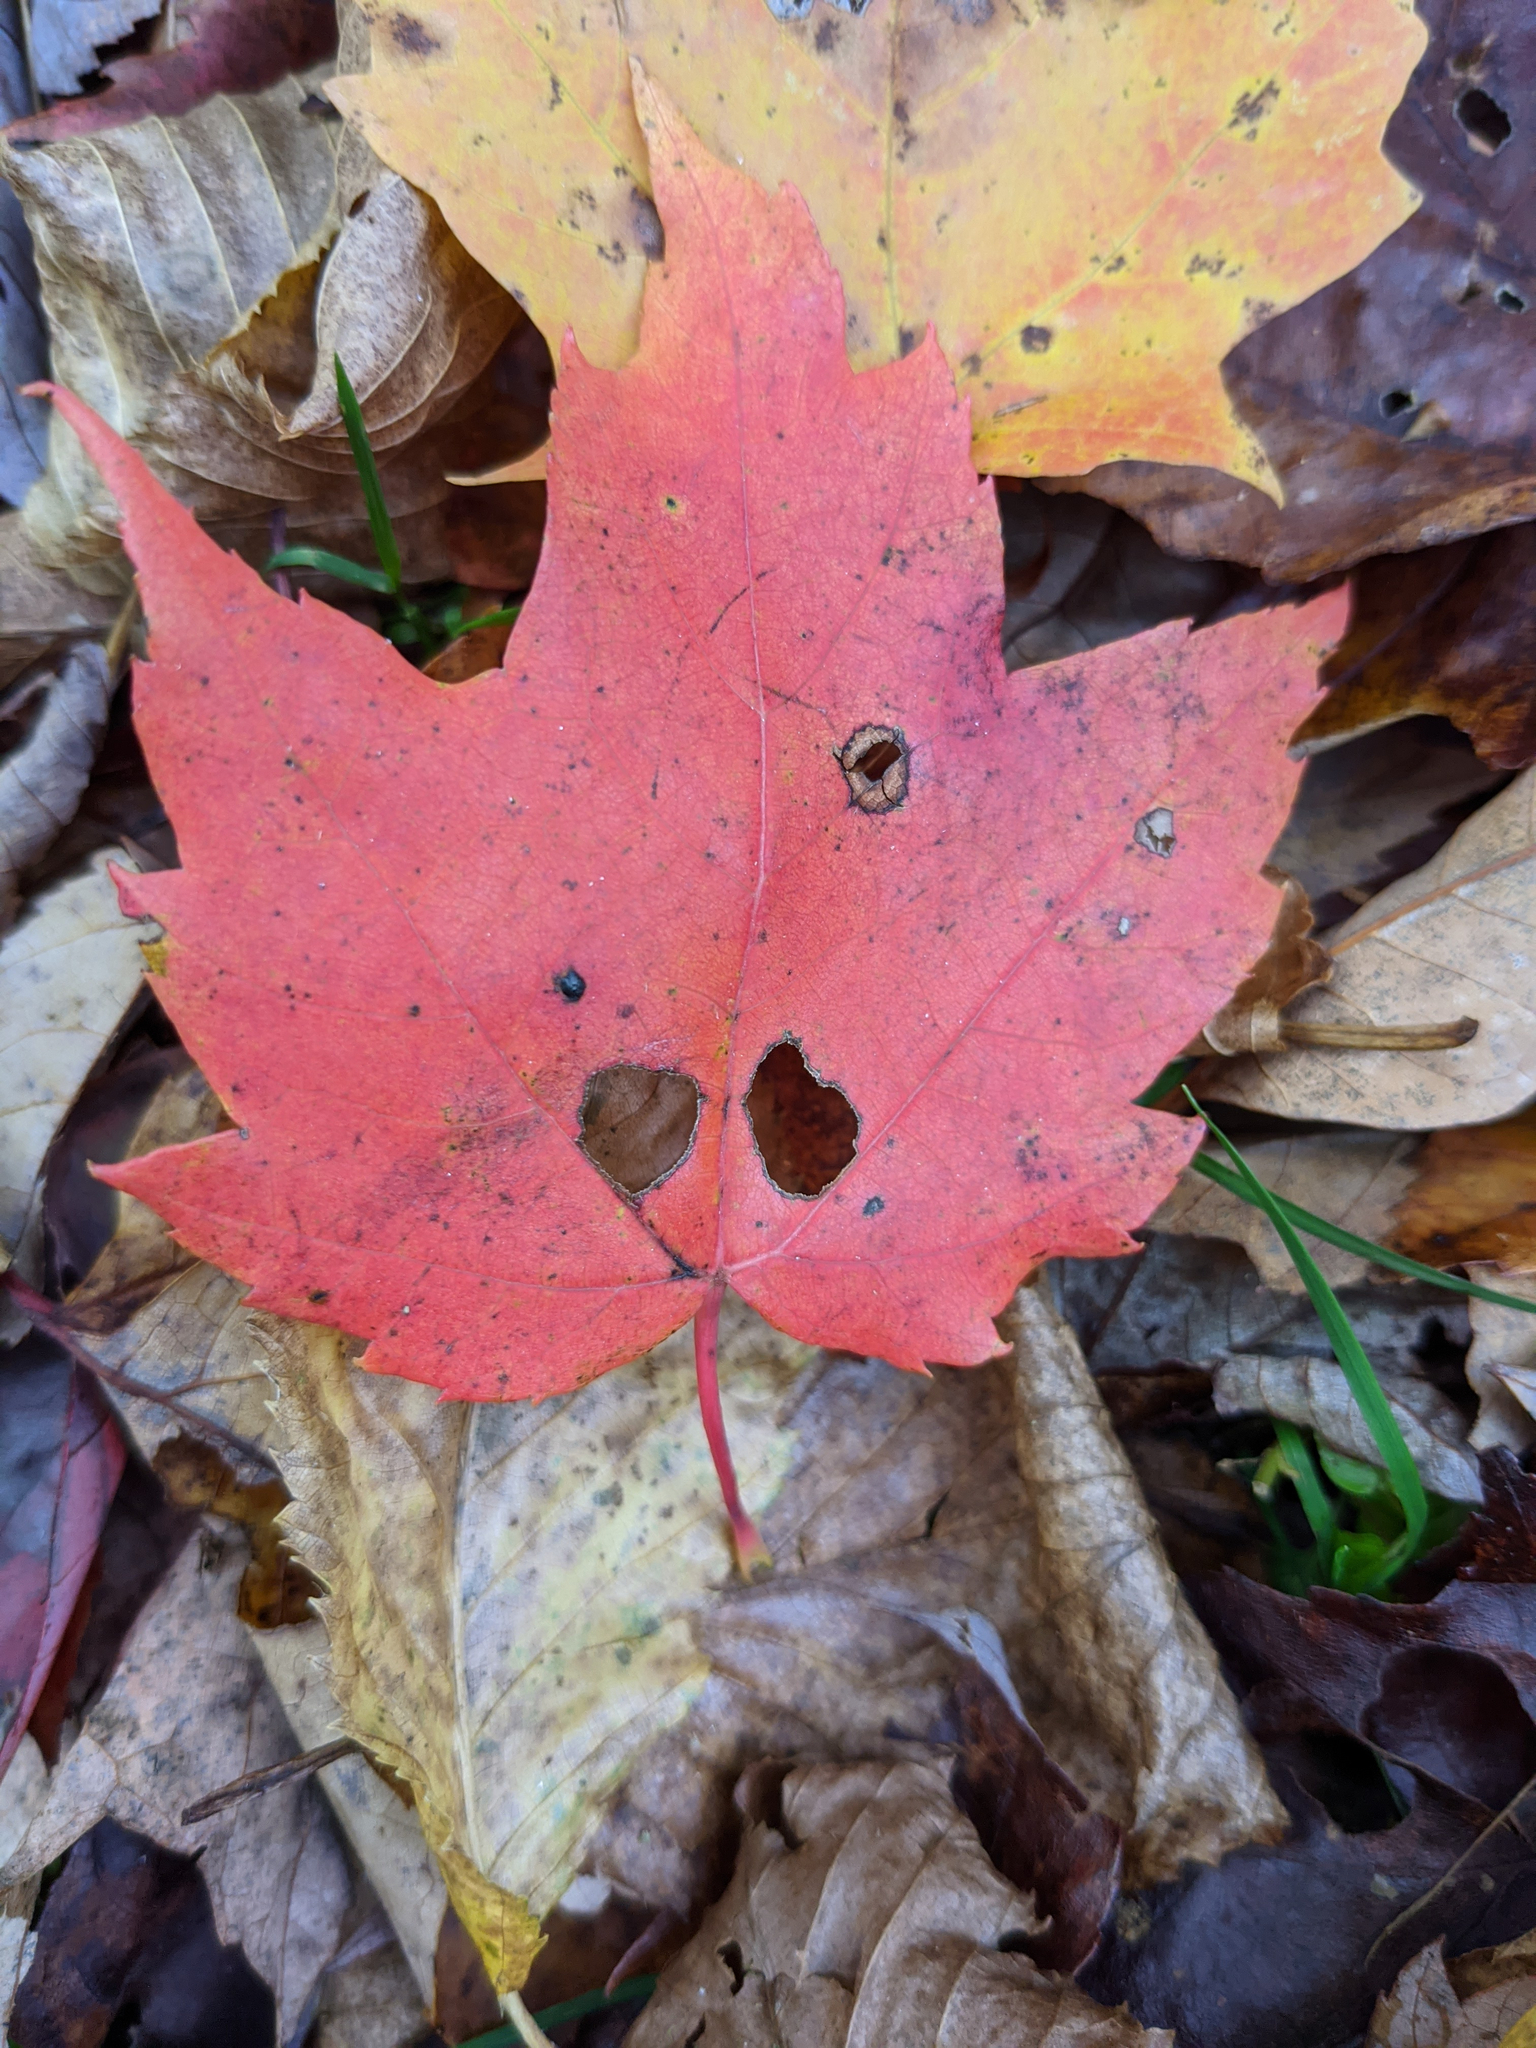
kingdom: Plantae
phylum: Tracheophyta
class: Magnoliopsida
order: Sapindales
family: Sapindaceae
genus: Acer
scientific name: Acer rubrum
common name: Red maple
